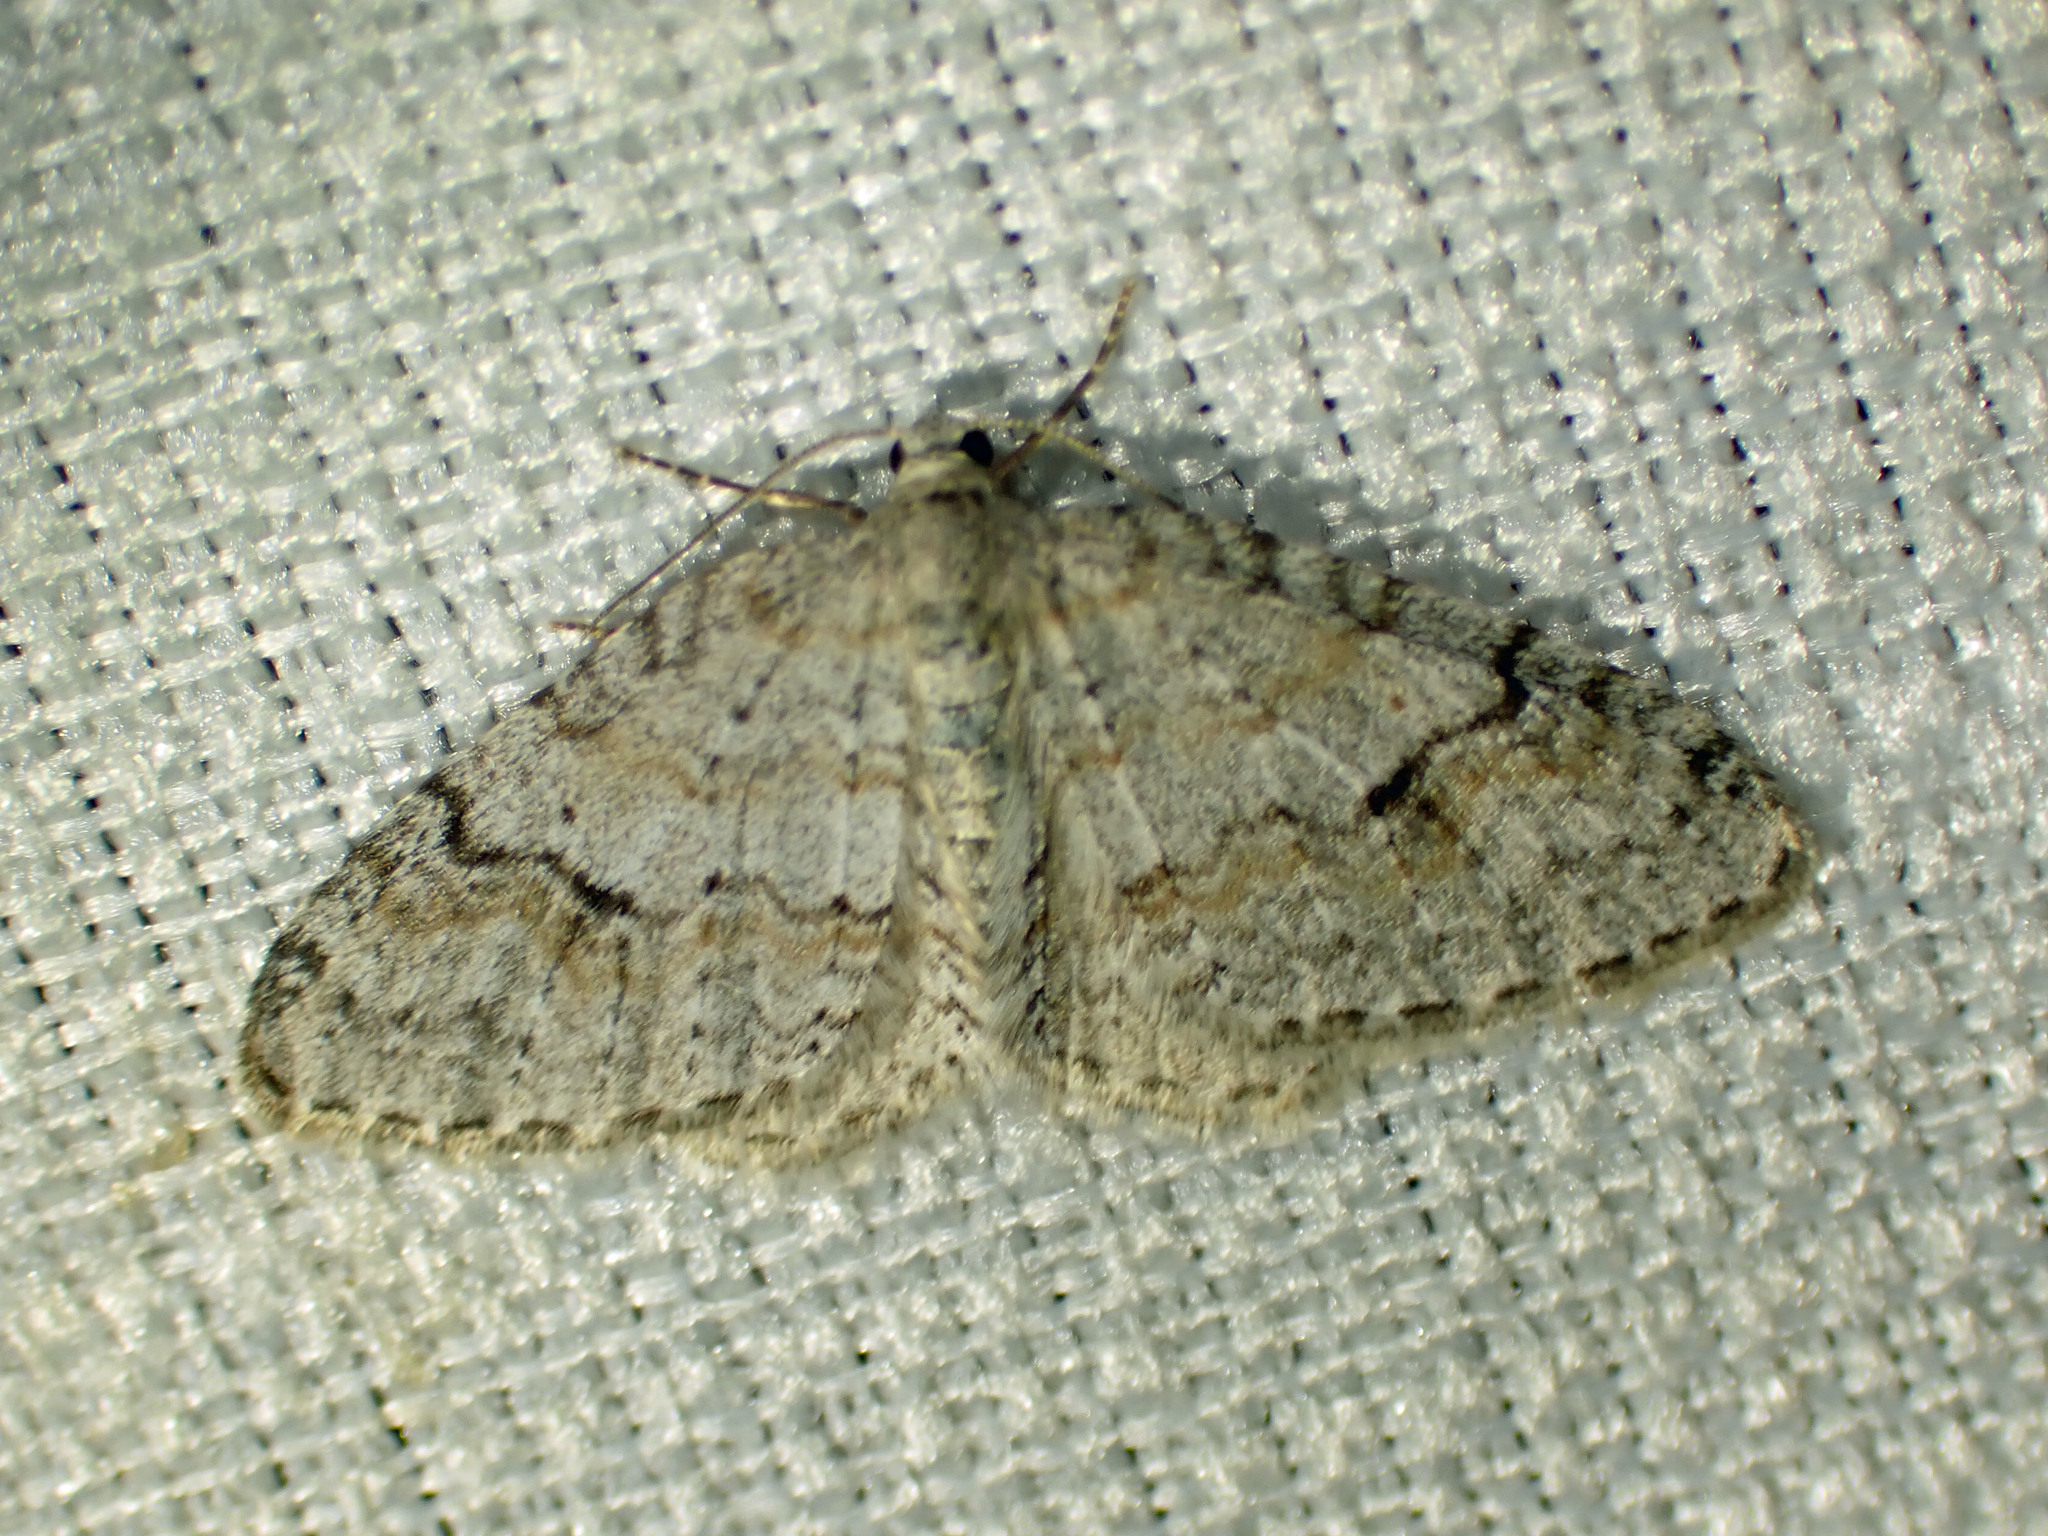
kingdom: Animalia
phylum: Arthropoda
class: Insecta
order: Lepidoptera
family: Geometridae
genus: Venusia
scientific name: Venusia comptaria
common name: Brown-shaded carpet
